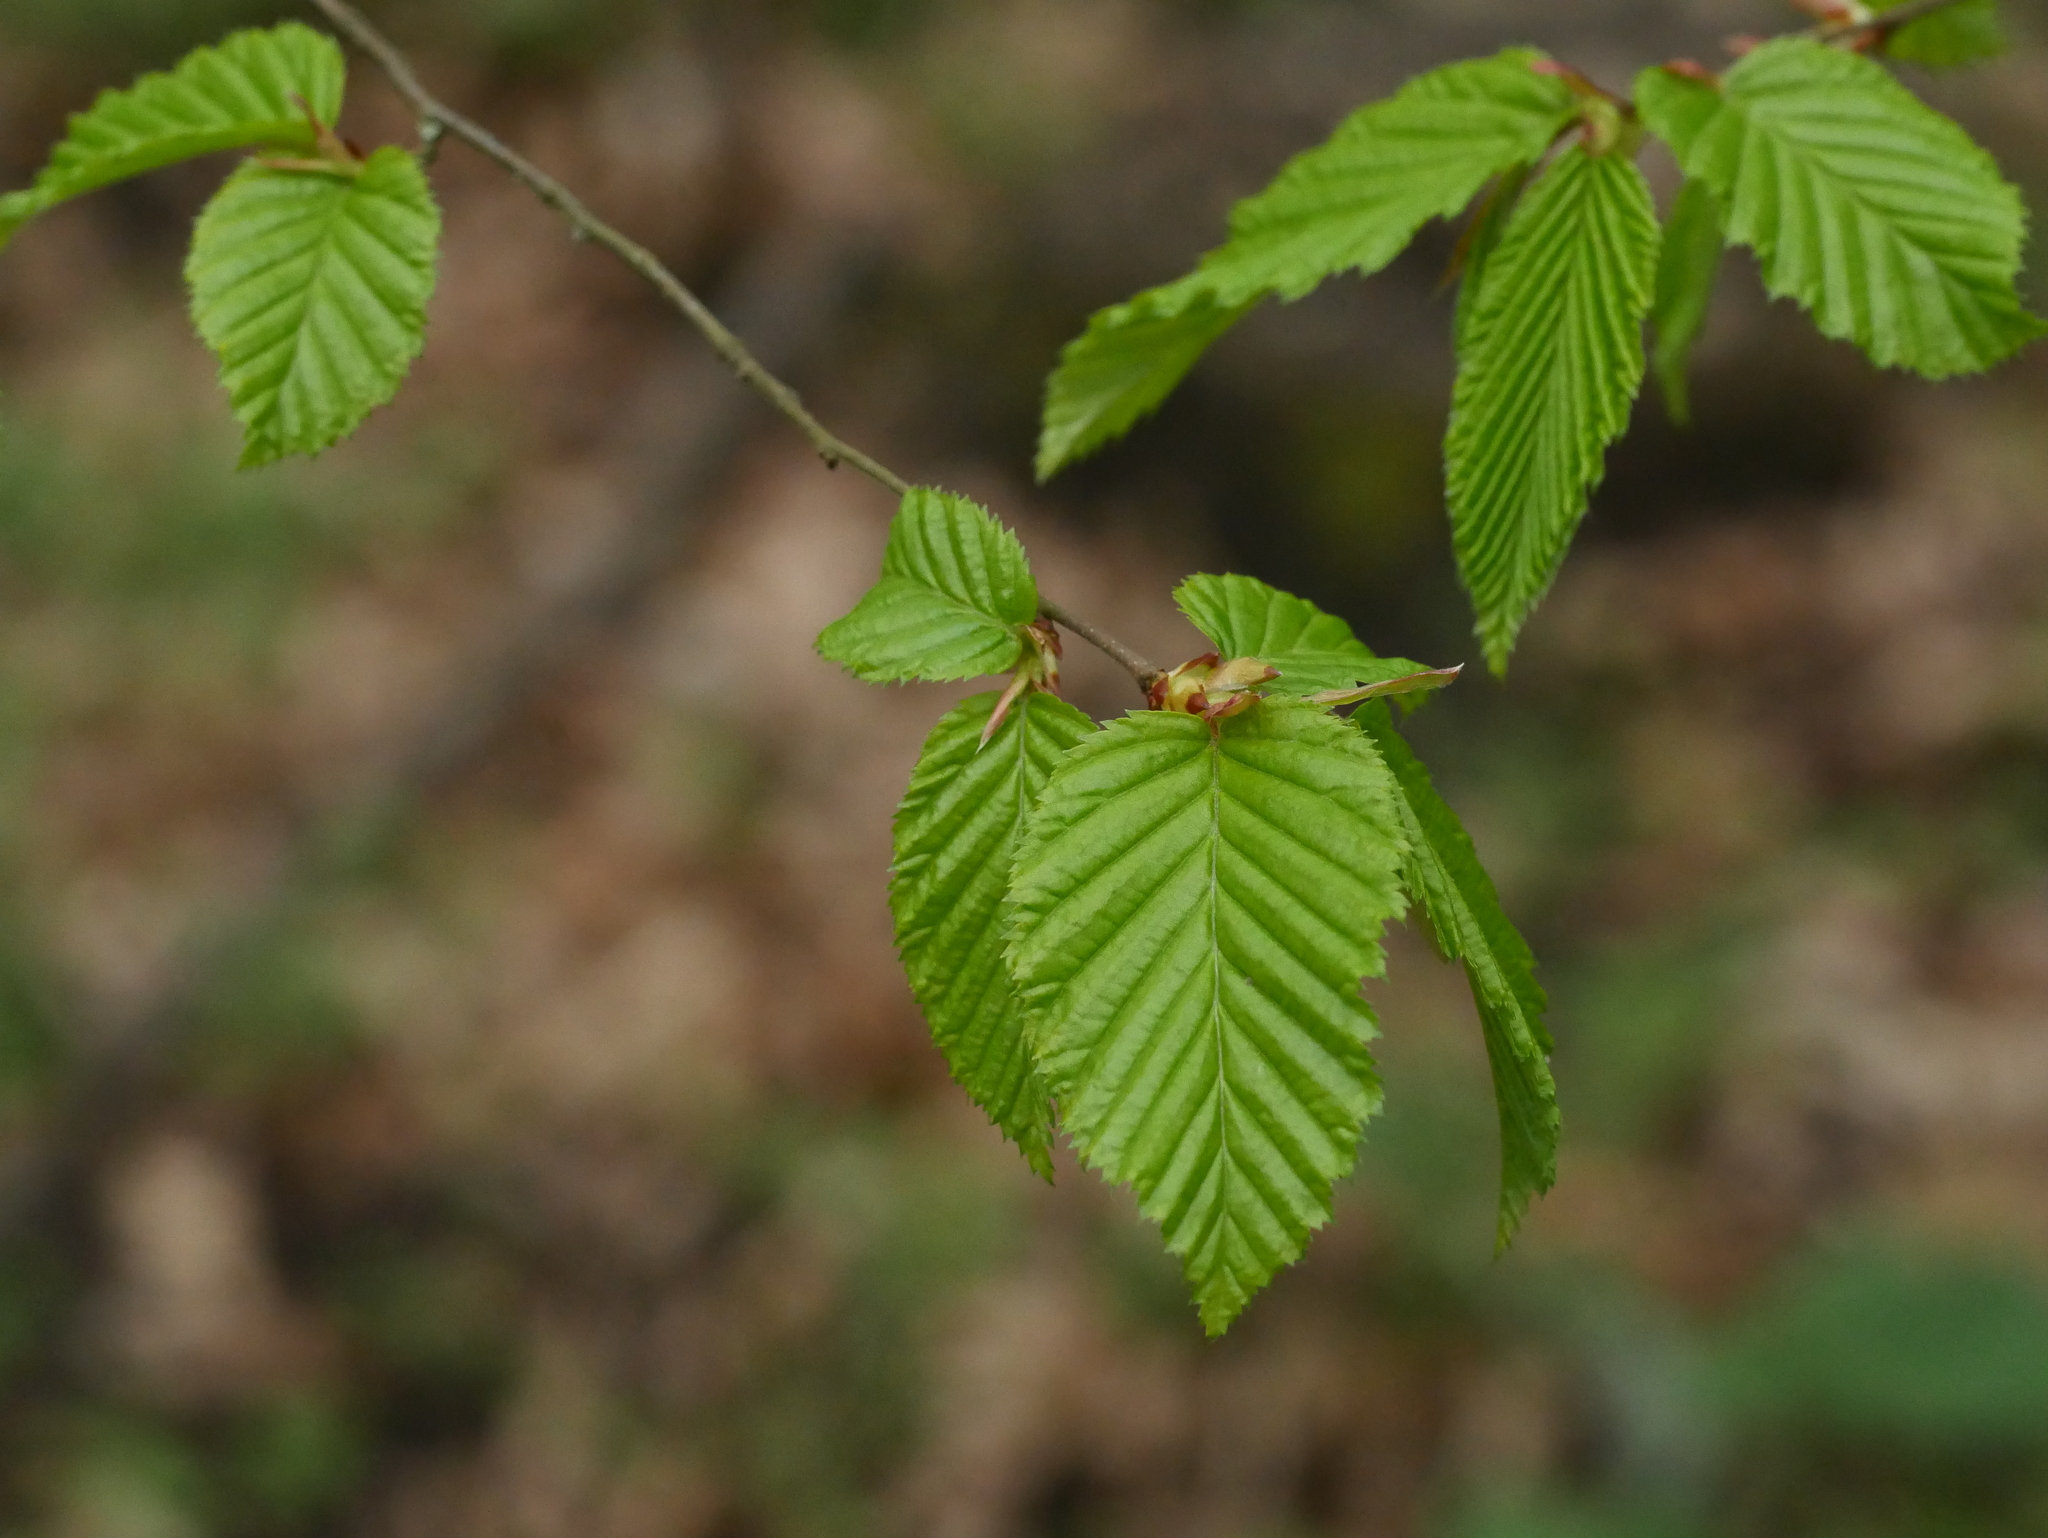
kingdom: Plantae
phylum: Tracheophyta
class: Magnoliopsida
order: Fagales
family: Betulaceae
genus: Carpinus
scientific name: Carpinus betulus
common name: Hornbeam
